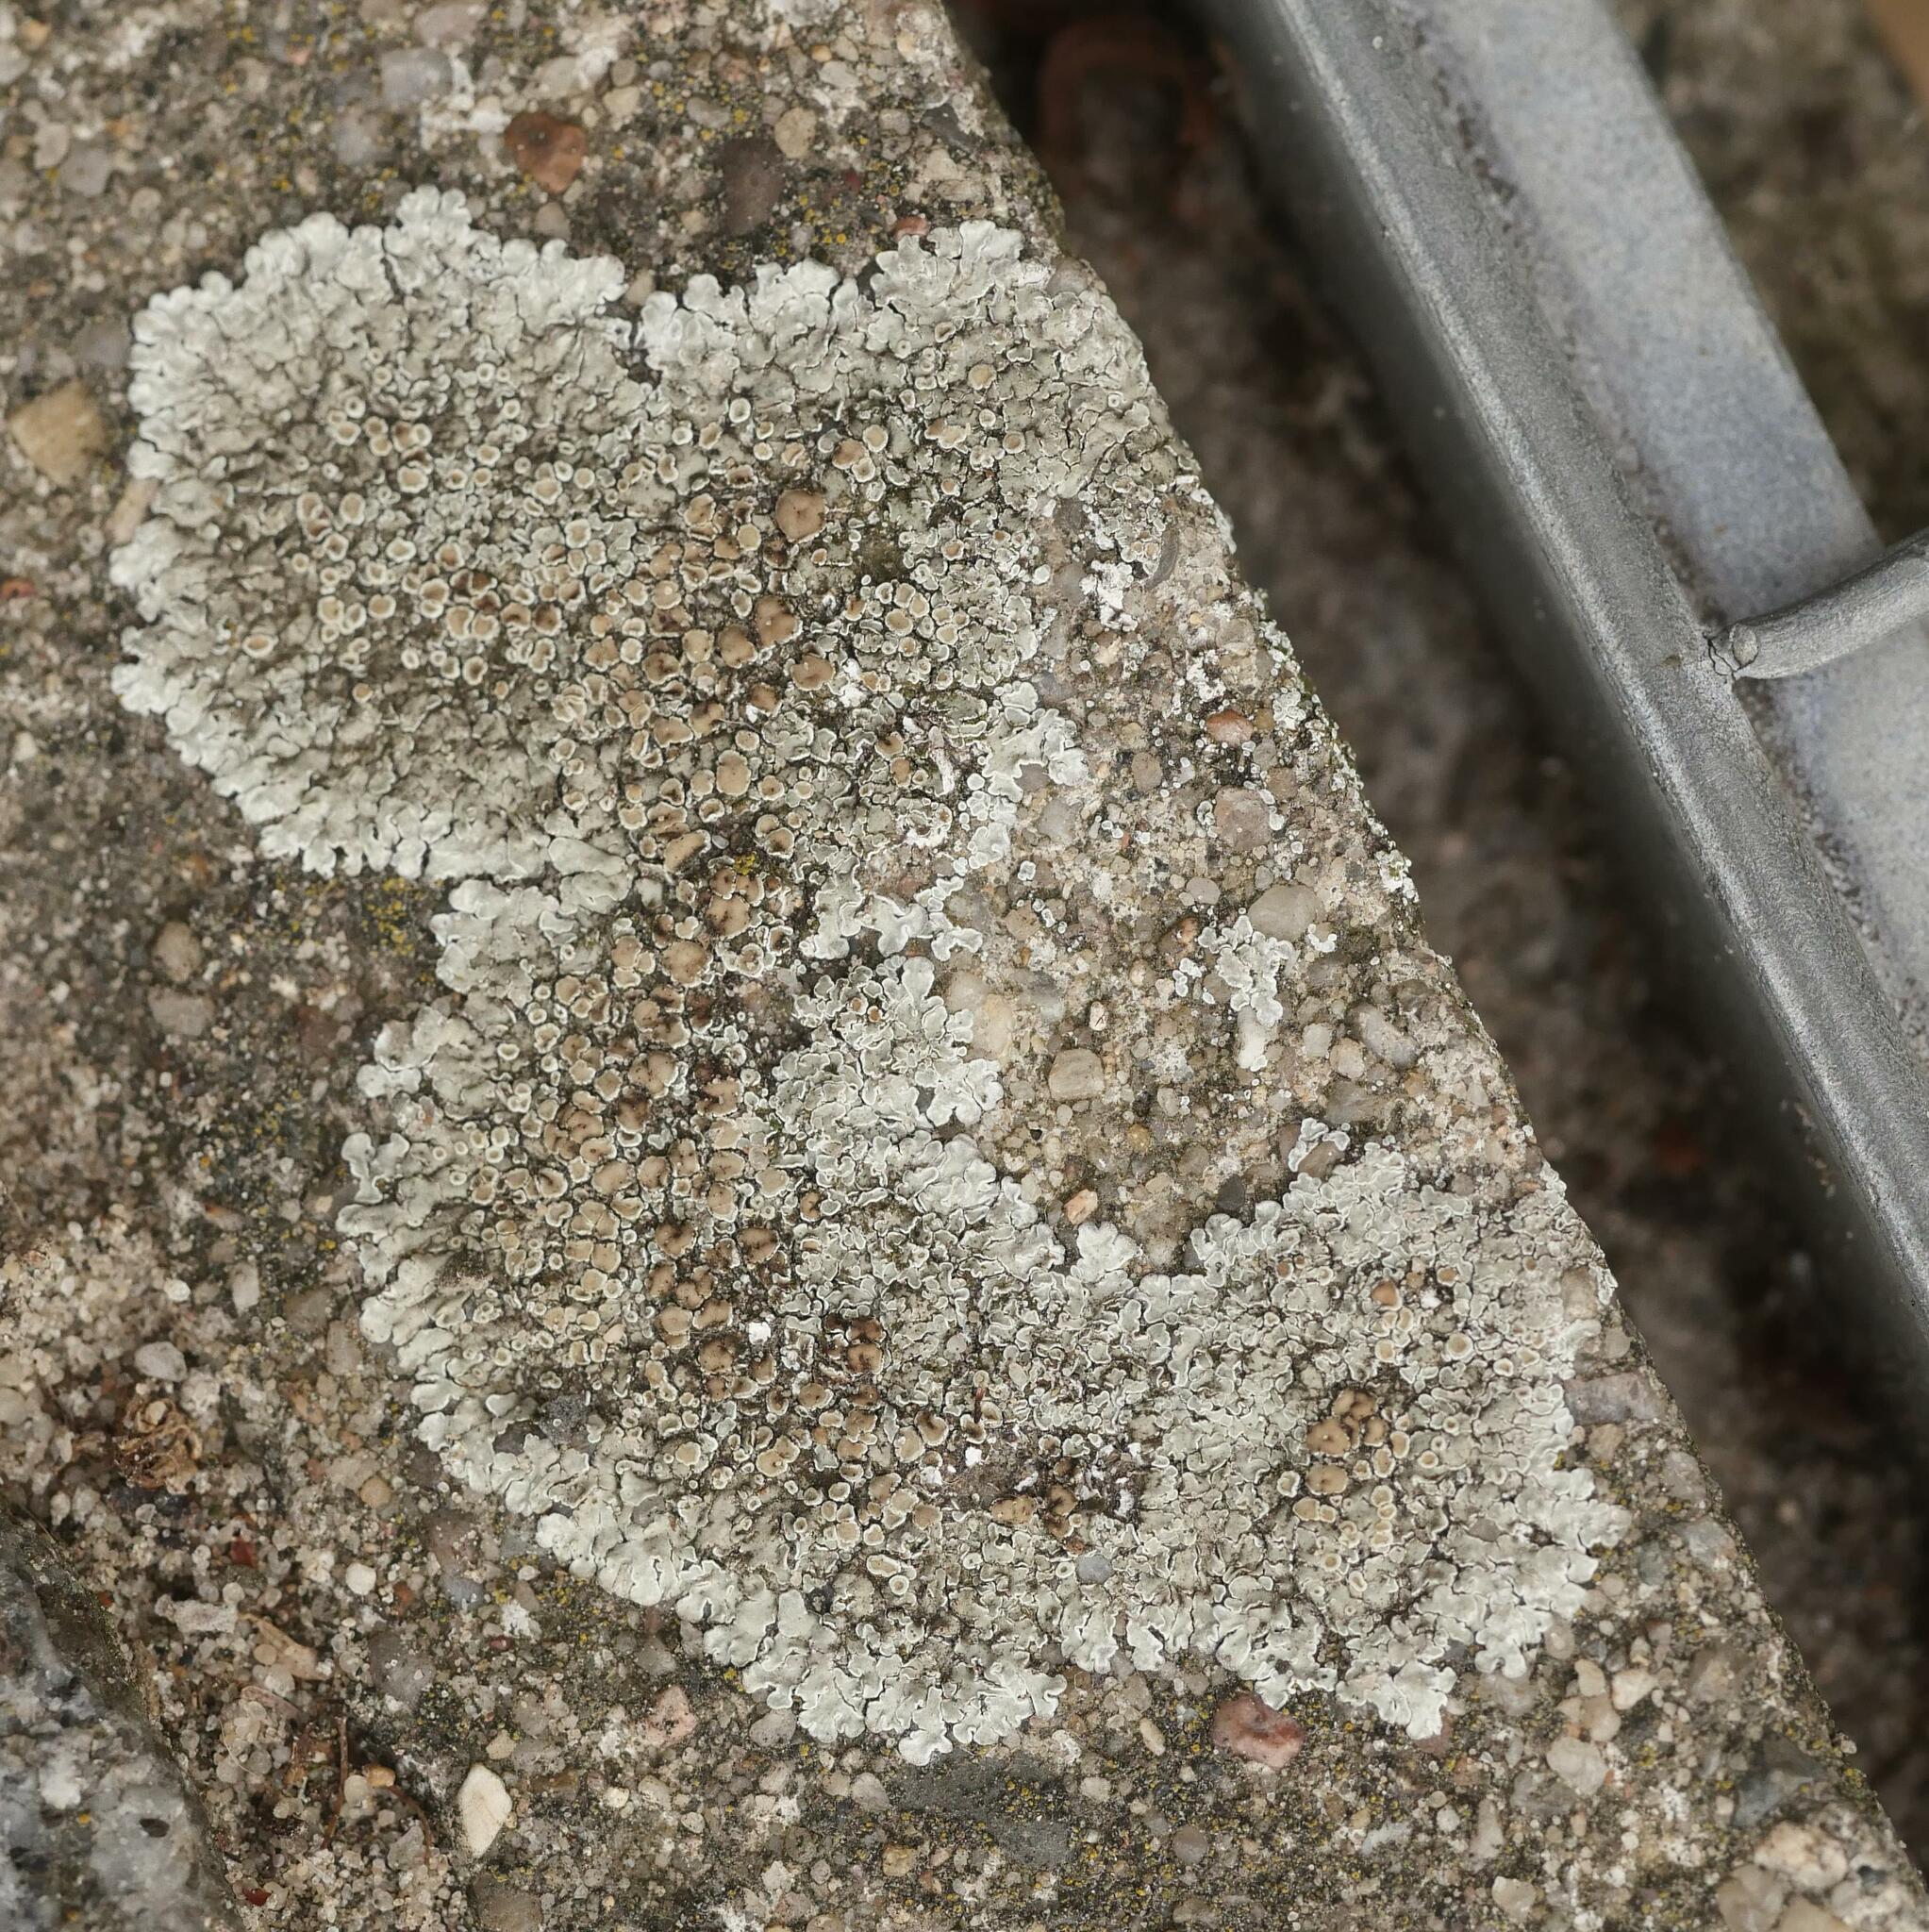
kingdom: Fungi
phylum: Ascomycota
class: Lecanoromycetes
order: Lecanorales
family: Lecanoraceae
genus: Protoparmeliopsis
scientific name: Protoparmeliopsis muralis
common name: Stonewall rim lichen
